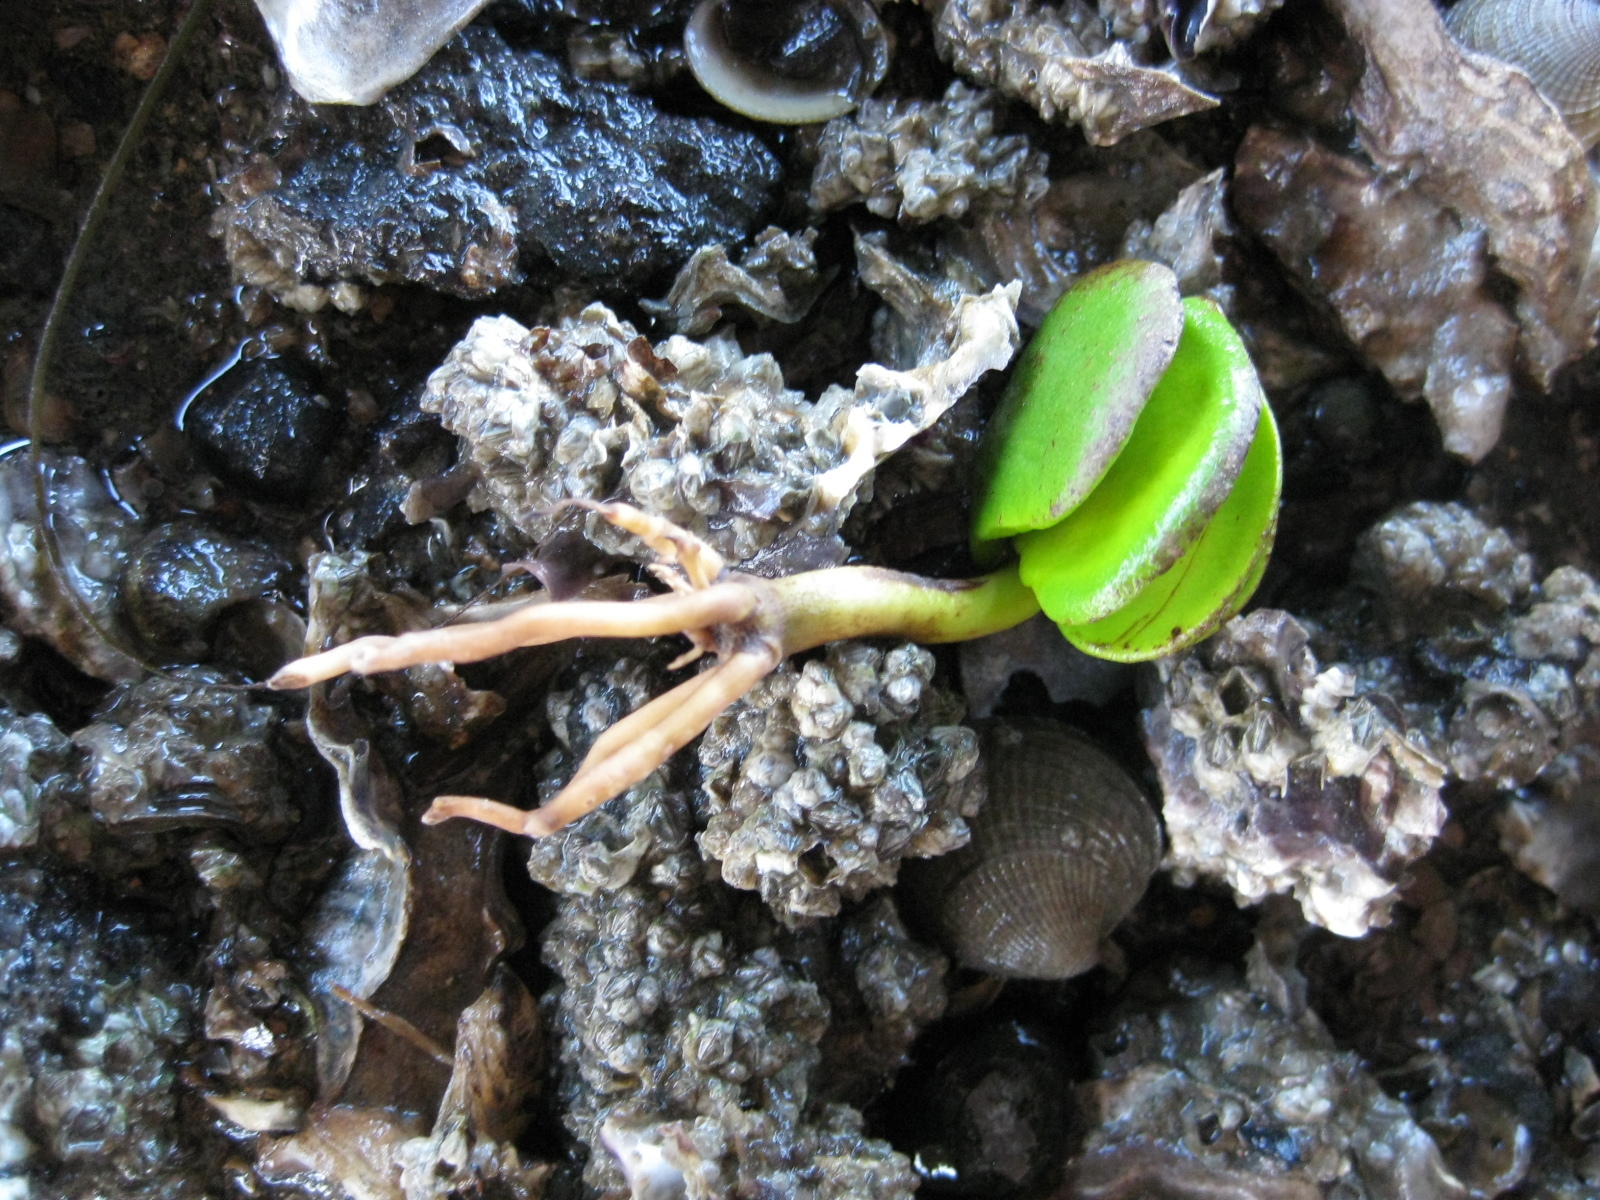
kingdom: Plantae
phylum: Tracheophyta
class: Magnoliopsida
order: Lamiales
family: Acanthaceae
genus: Avicennia
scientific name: Avicennia marina
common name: Gray mangrove
